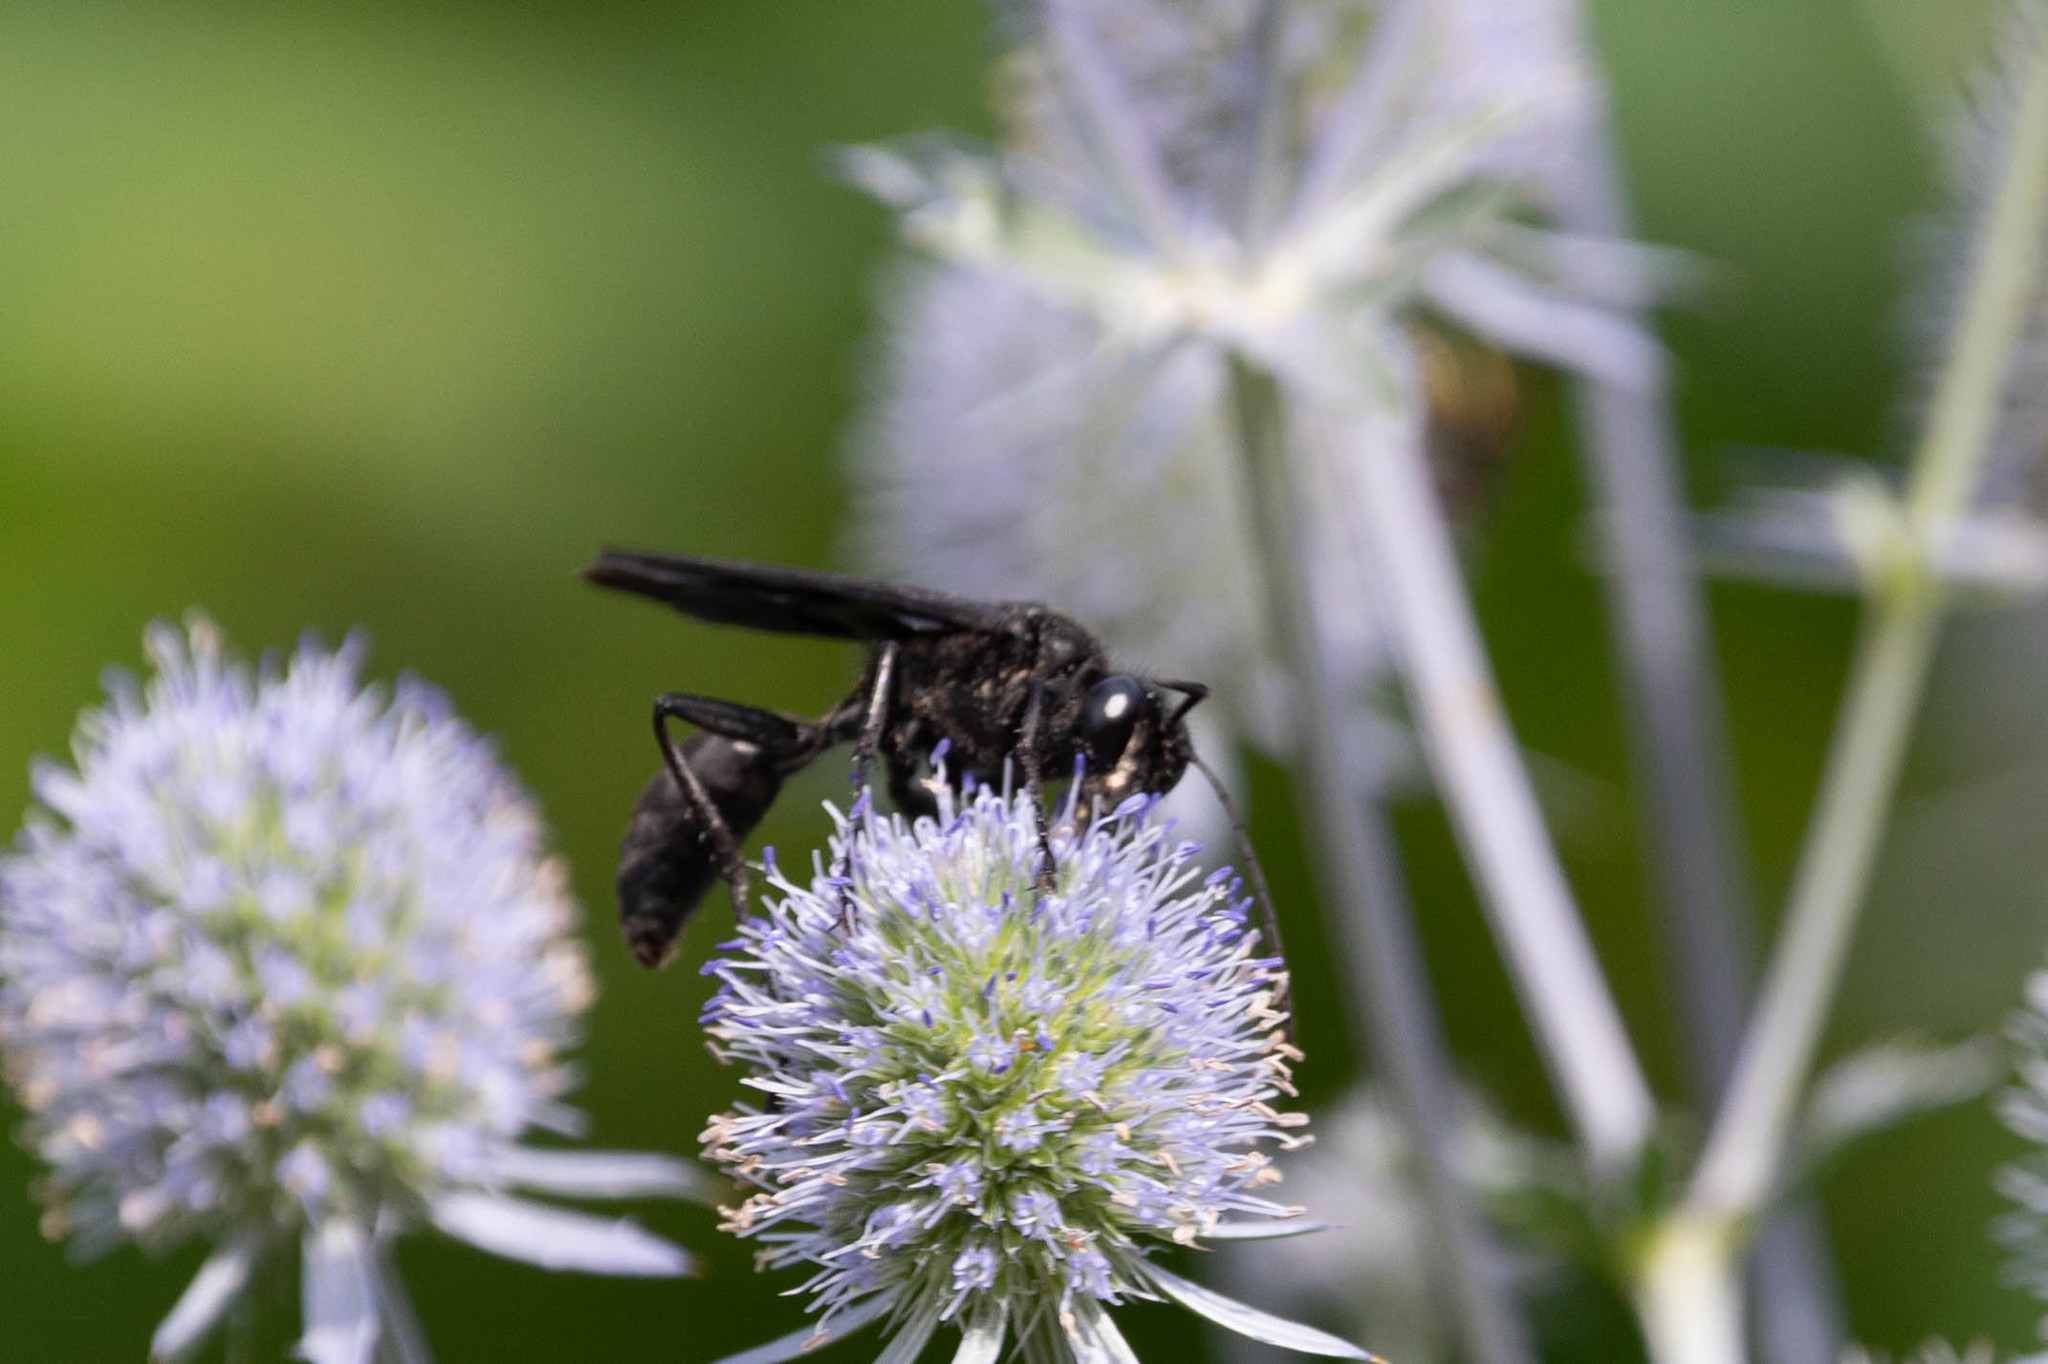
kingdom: Animalia
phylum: Arthropoda
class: Insecta
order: Hymenoptera
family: Sphecidae
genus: Sphex
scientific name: Sphex pensylvanicus
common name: Great black digger wasp
